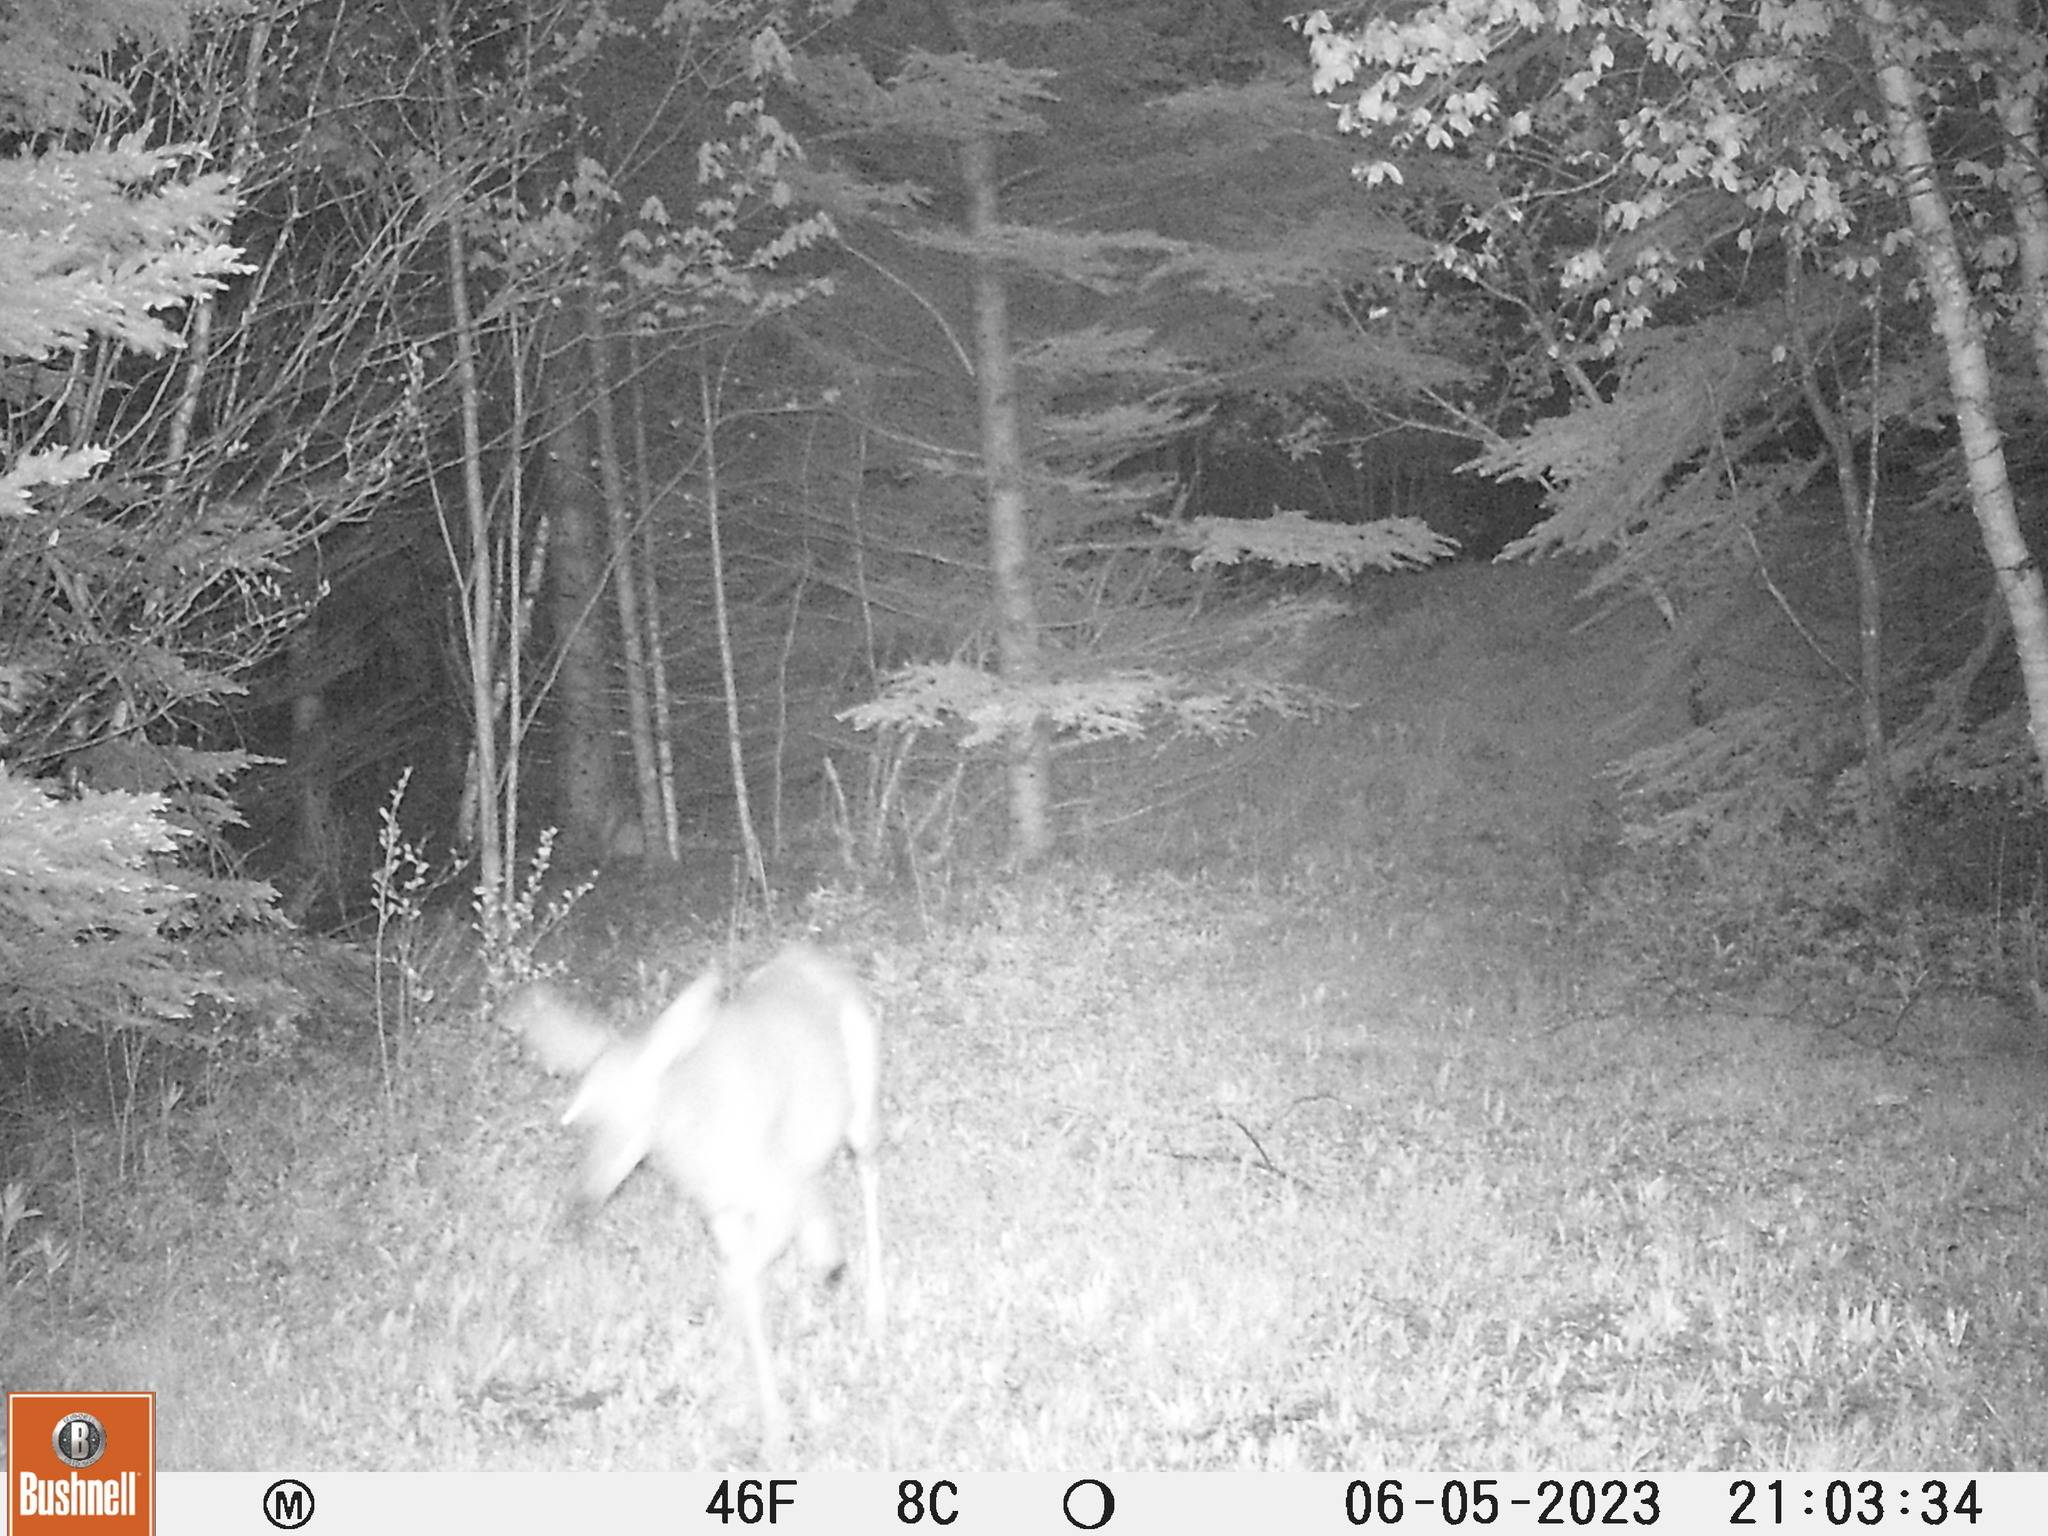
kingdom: Animalia
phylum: Chordata
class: Mammalia
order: Artiodactyla
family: Cervidae
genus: Odocoileus
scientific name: Odocoileus virginianus
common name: White-tailed deer
